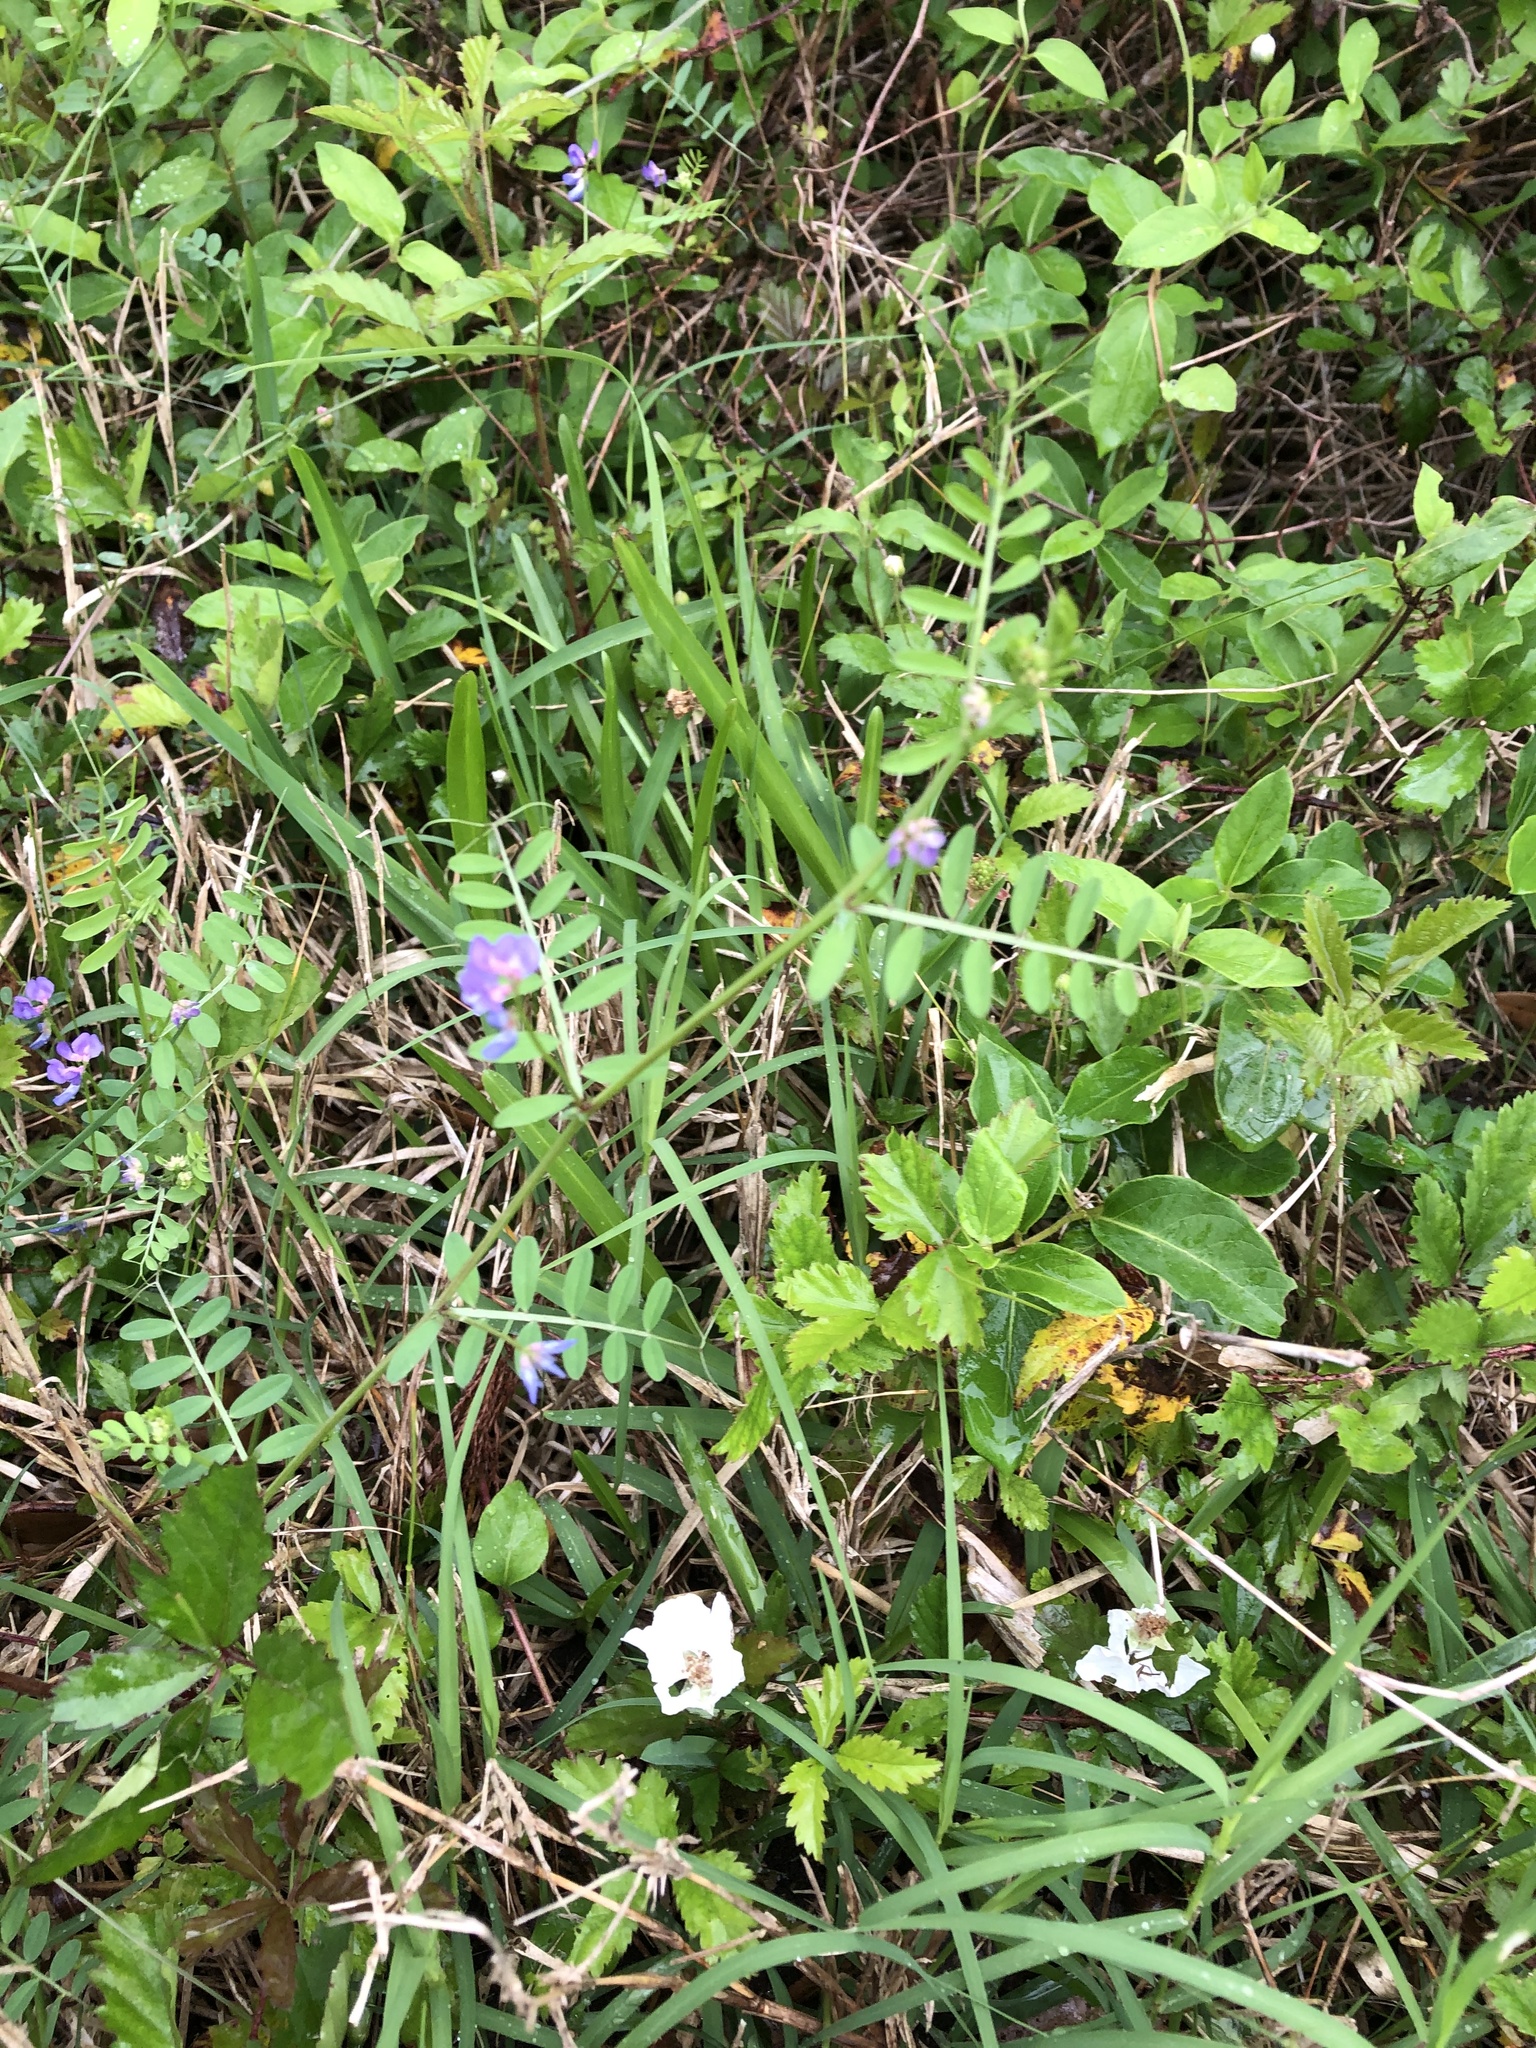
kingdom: Plantae
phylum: Tracheophyta
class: Magnoliopsida
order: Fabales
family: Fabaceae
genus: Vicia
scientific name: Vicia ludoviciana
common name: Louisiana vetch
